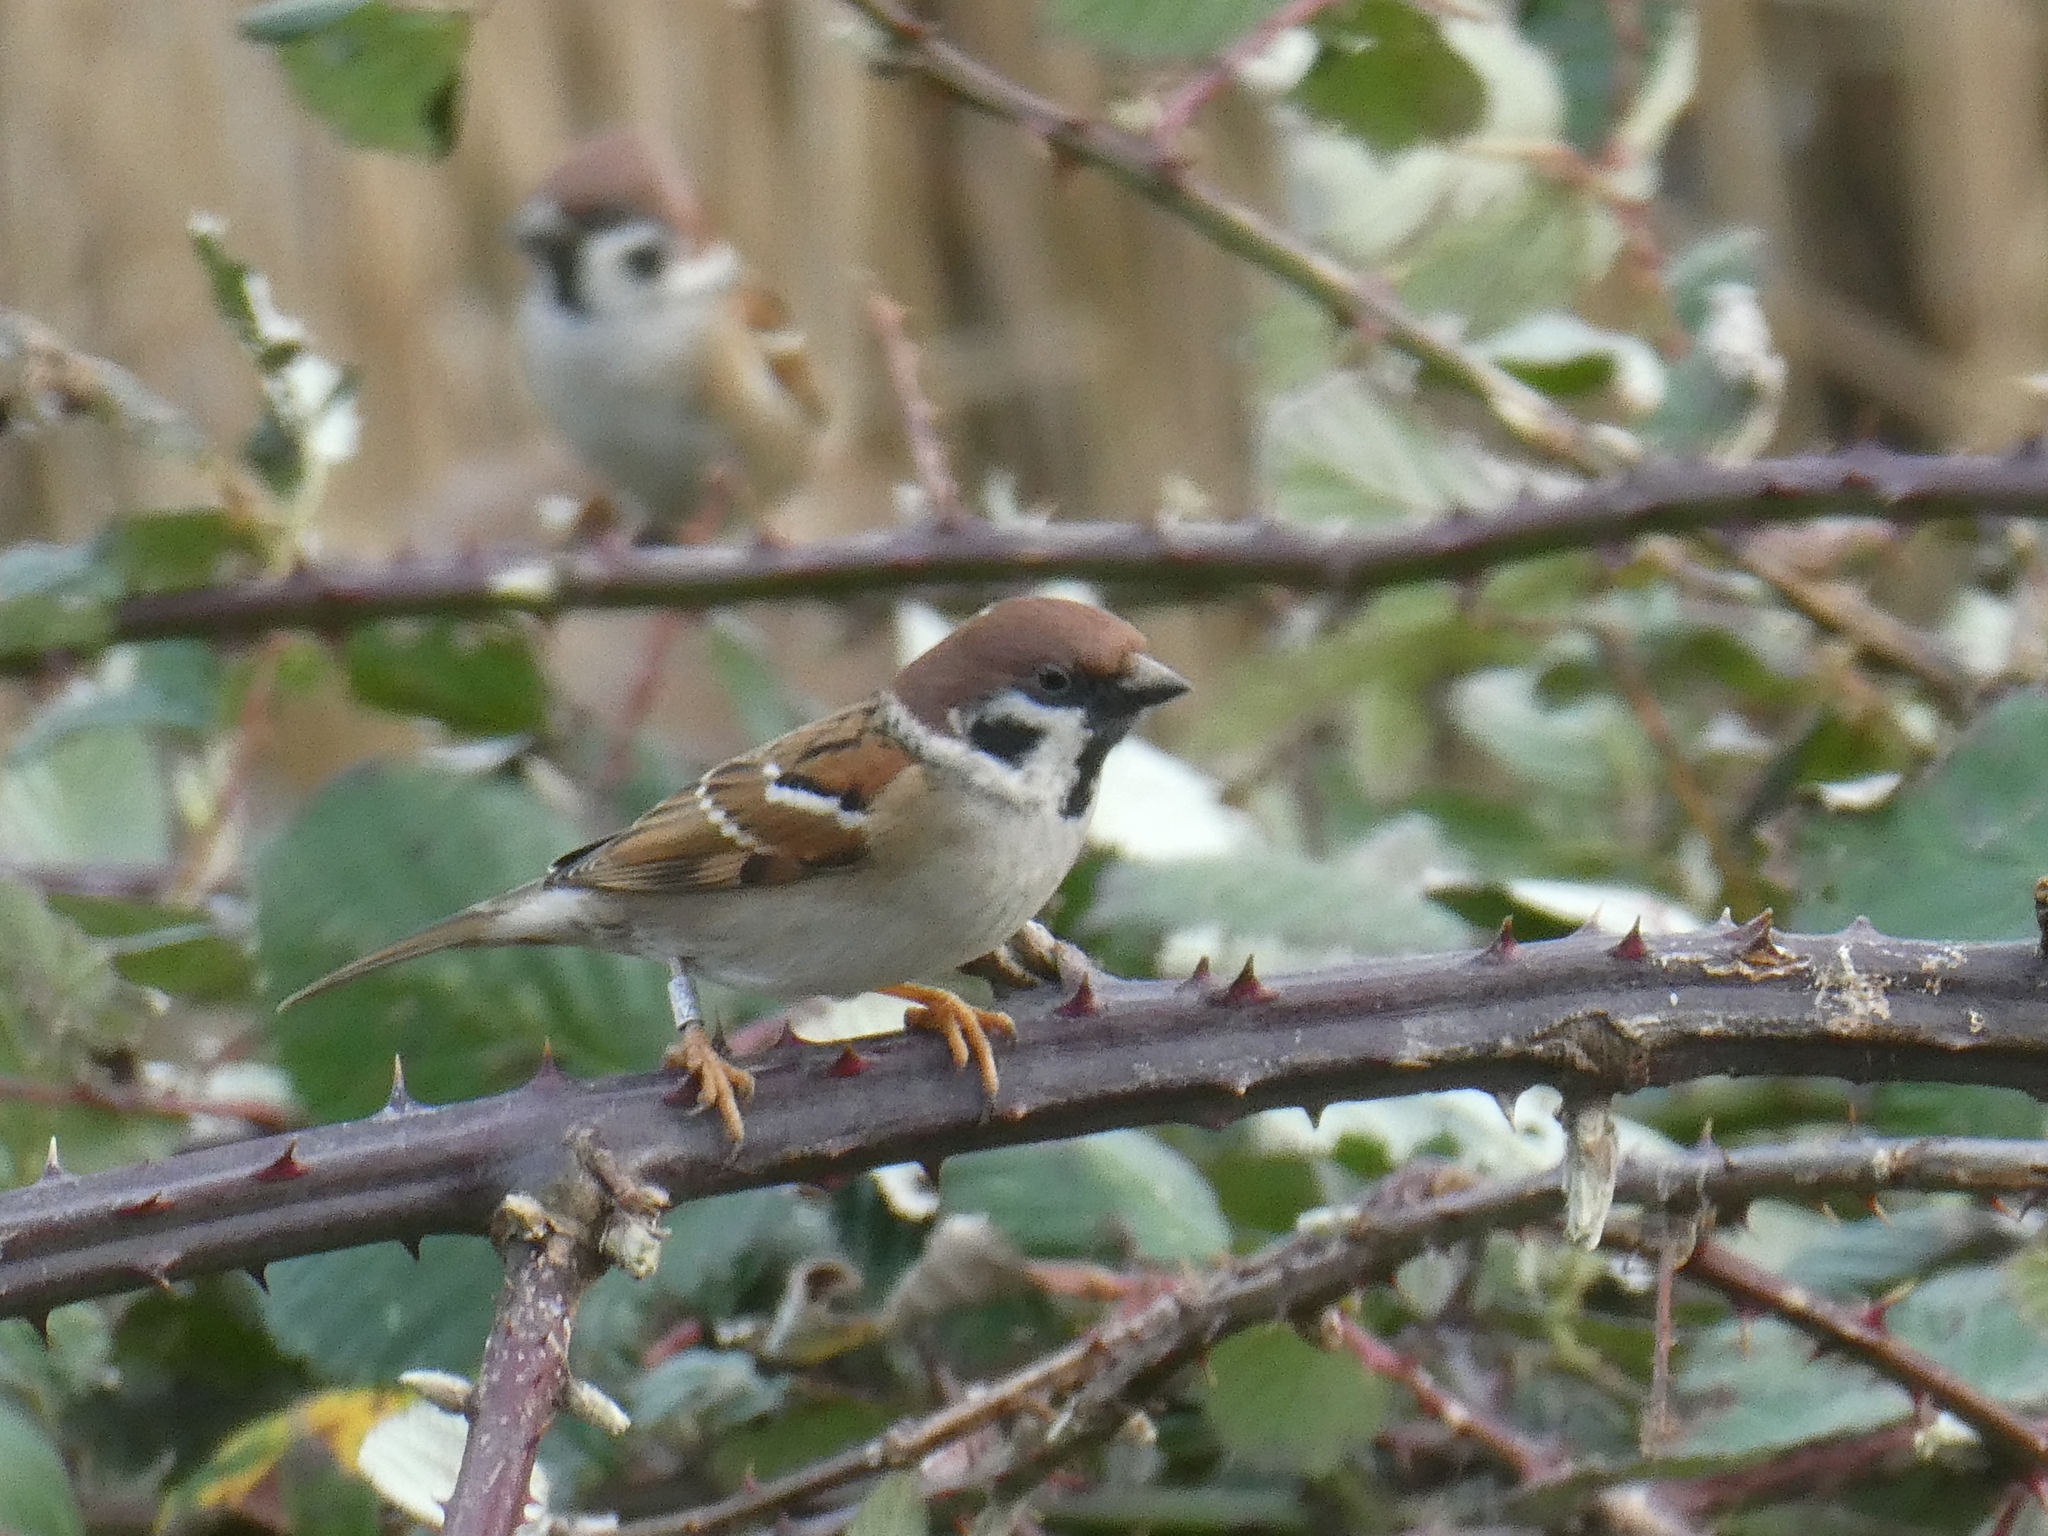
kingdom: Animalia
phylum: Chordata
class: Aves
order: Passeriformes
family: Passeridae
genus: Passer
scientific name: Passer montanus
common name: Eurasian tree sparrow
